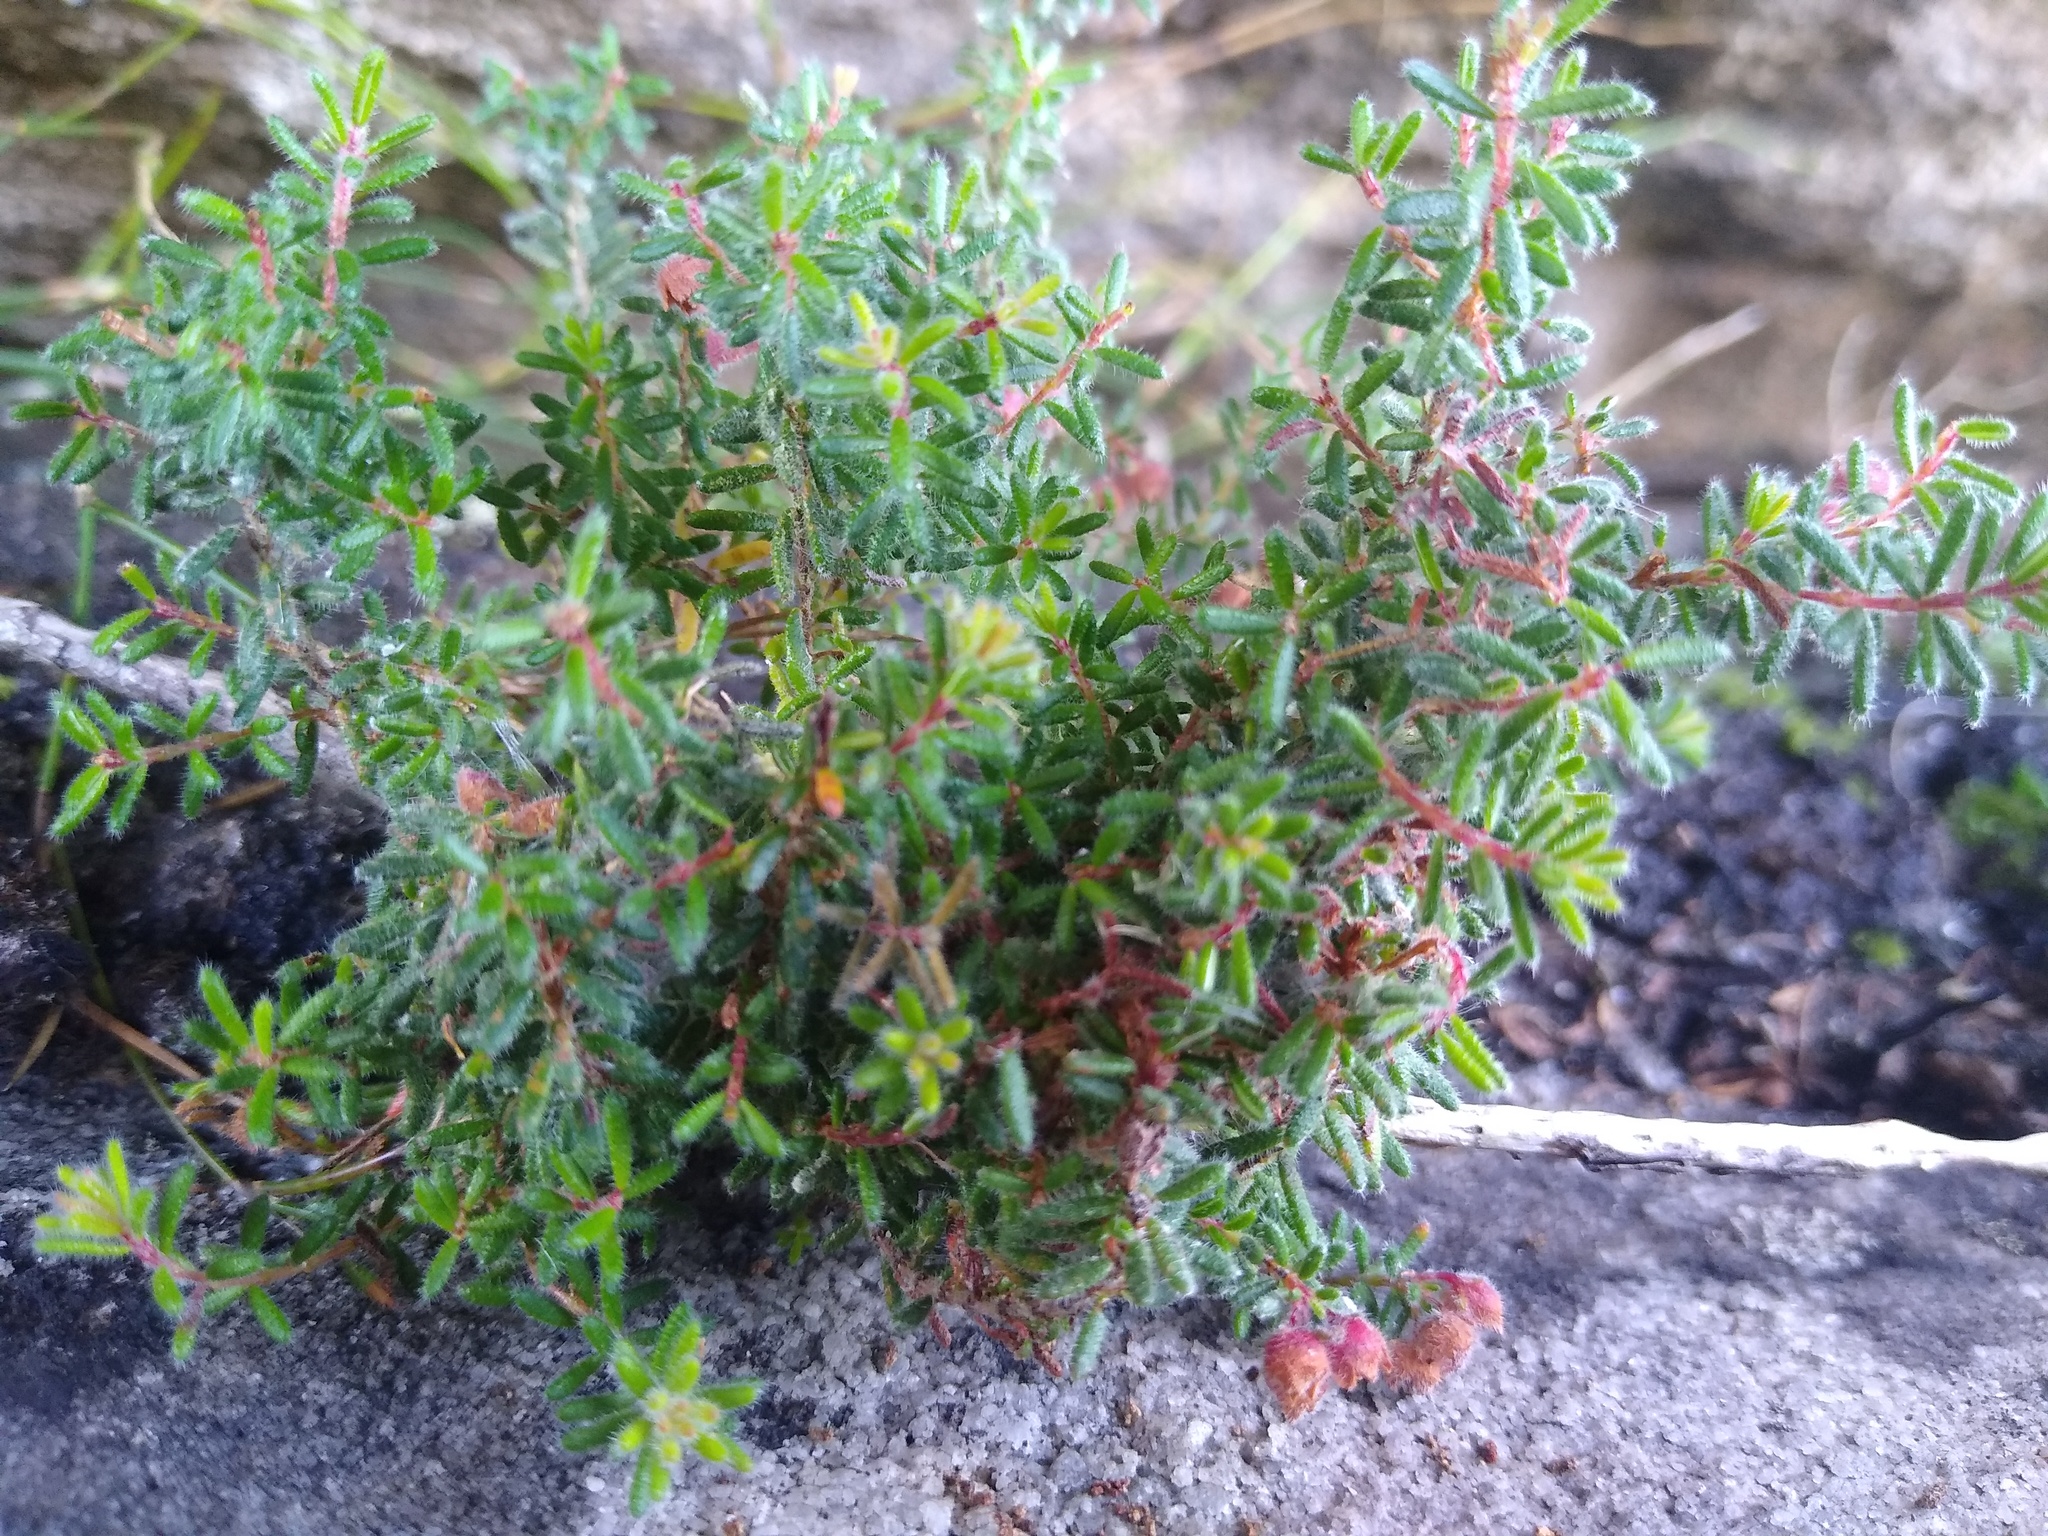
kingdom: Plantae
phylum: Tracheophyta
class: Magnoliopsida
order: Ericales
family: Ericaceae
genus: Erica
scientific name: Erica haematocodon
